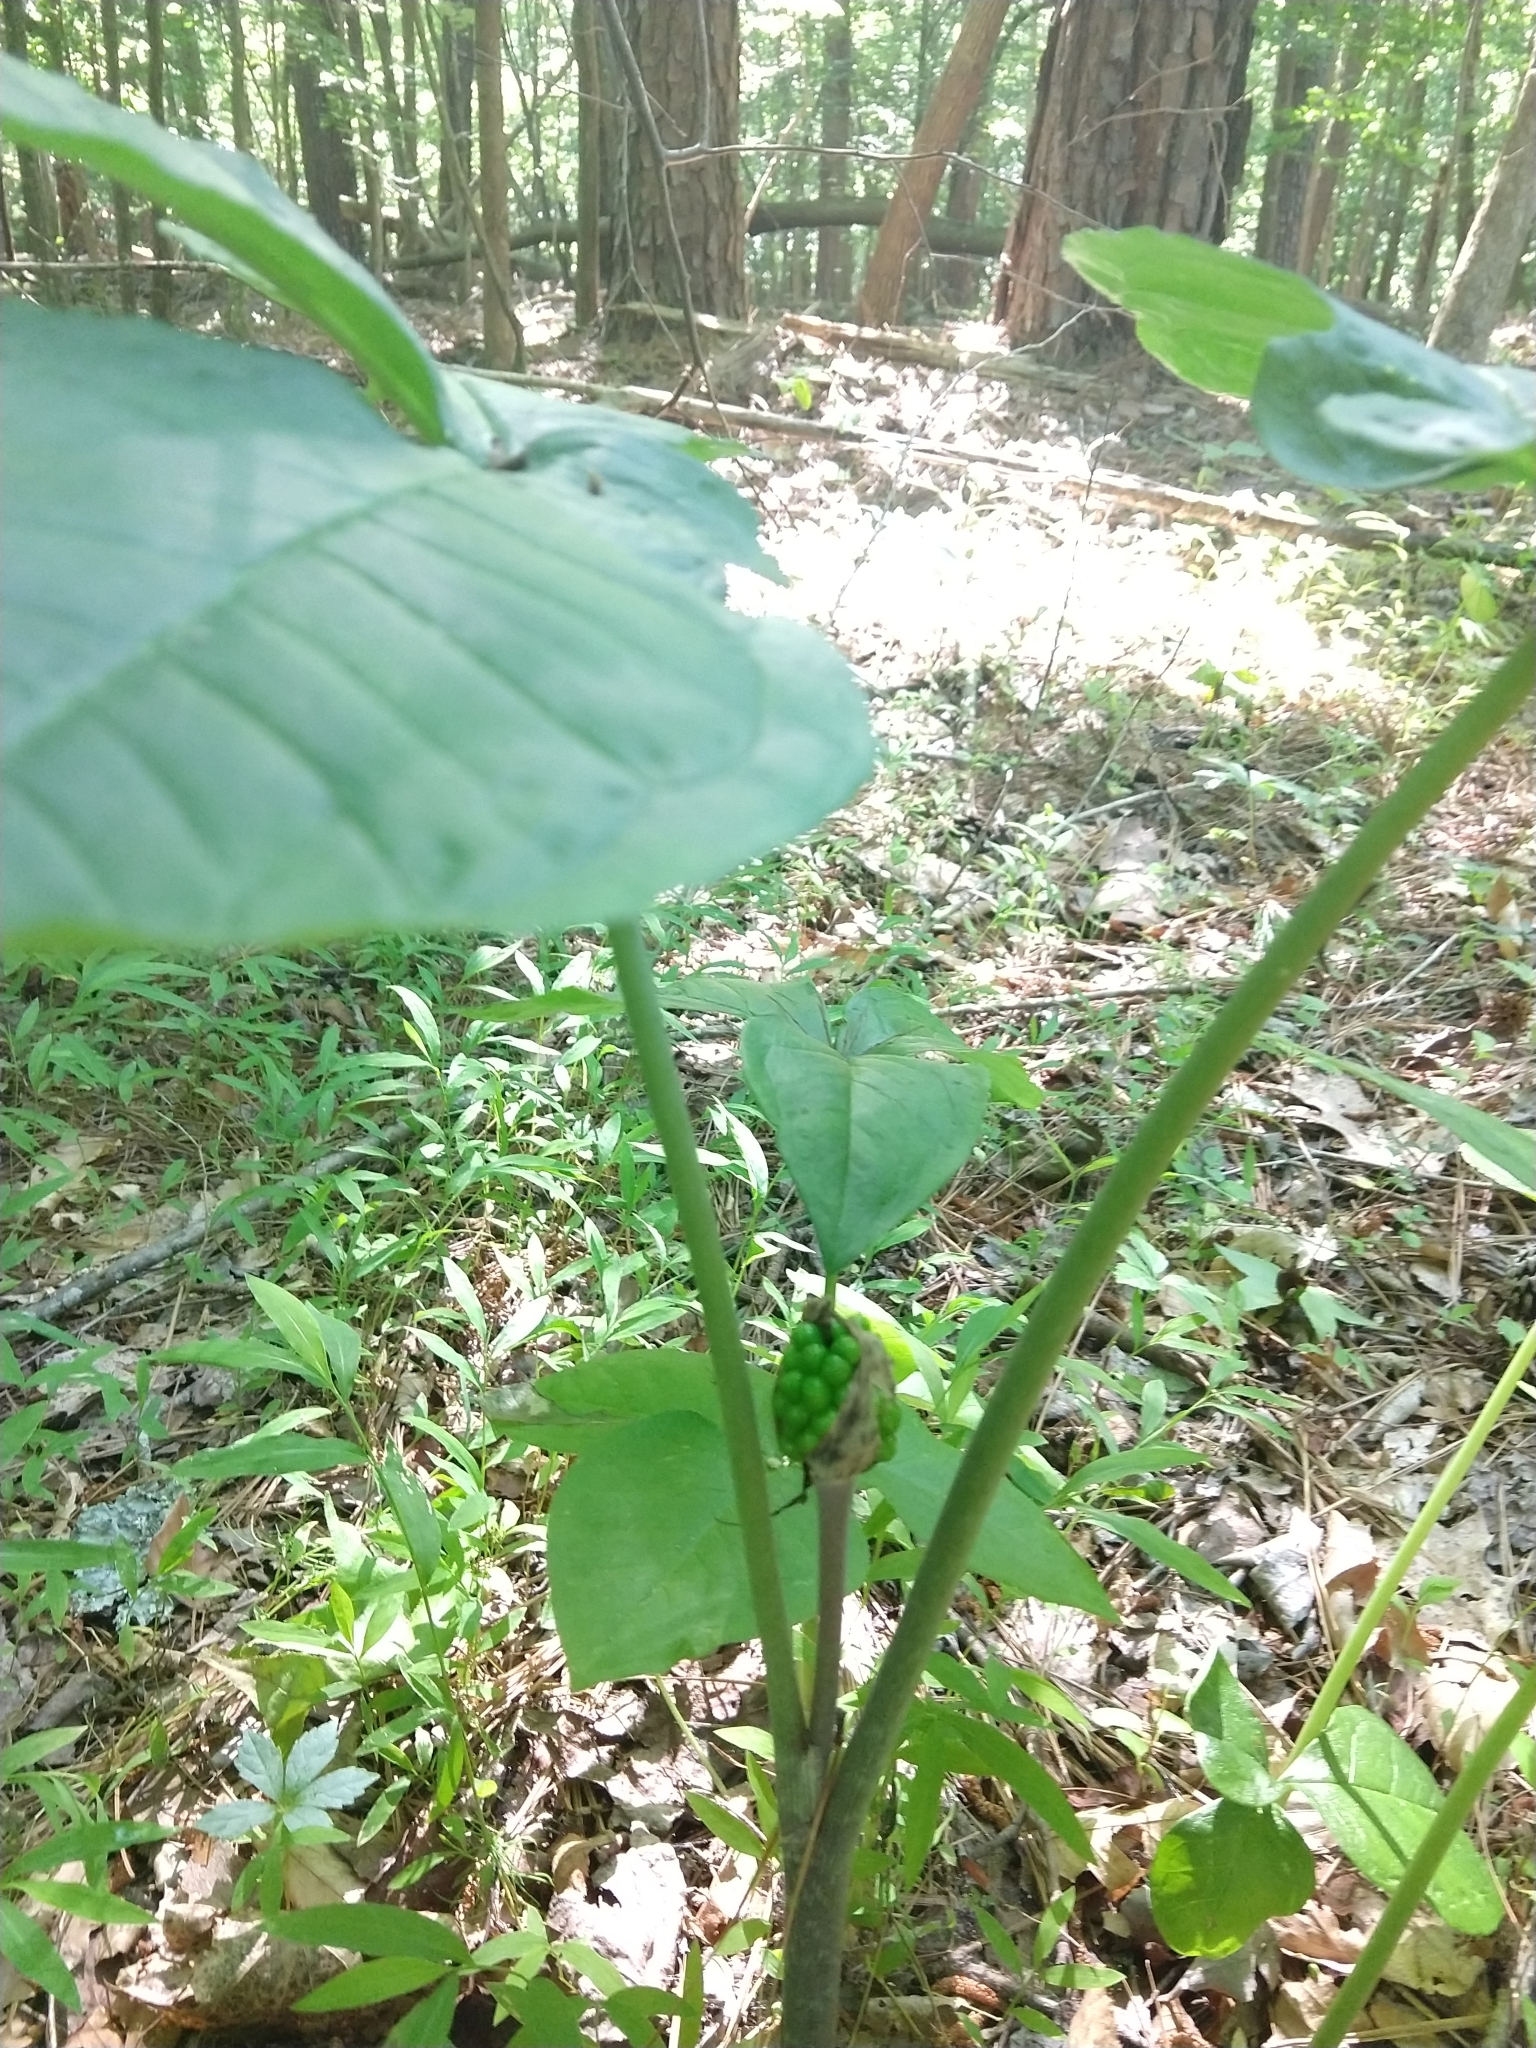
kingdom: Plantae
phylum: Tracheophyta
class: Liliopsida
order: Alismatales
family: Araceae
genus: Arisaema
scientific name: Arisaema triphyllum
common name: Jack-in-the-pulpit
